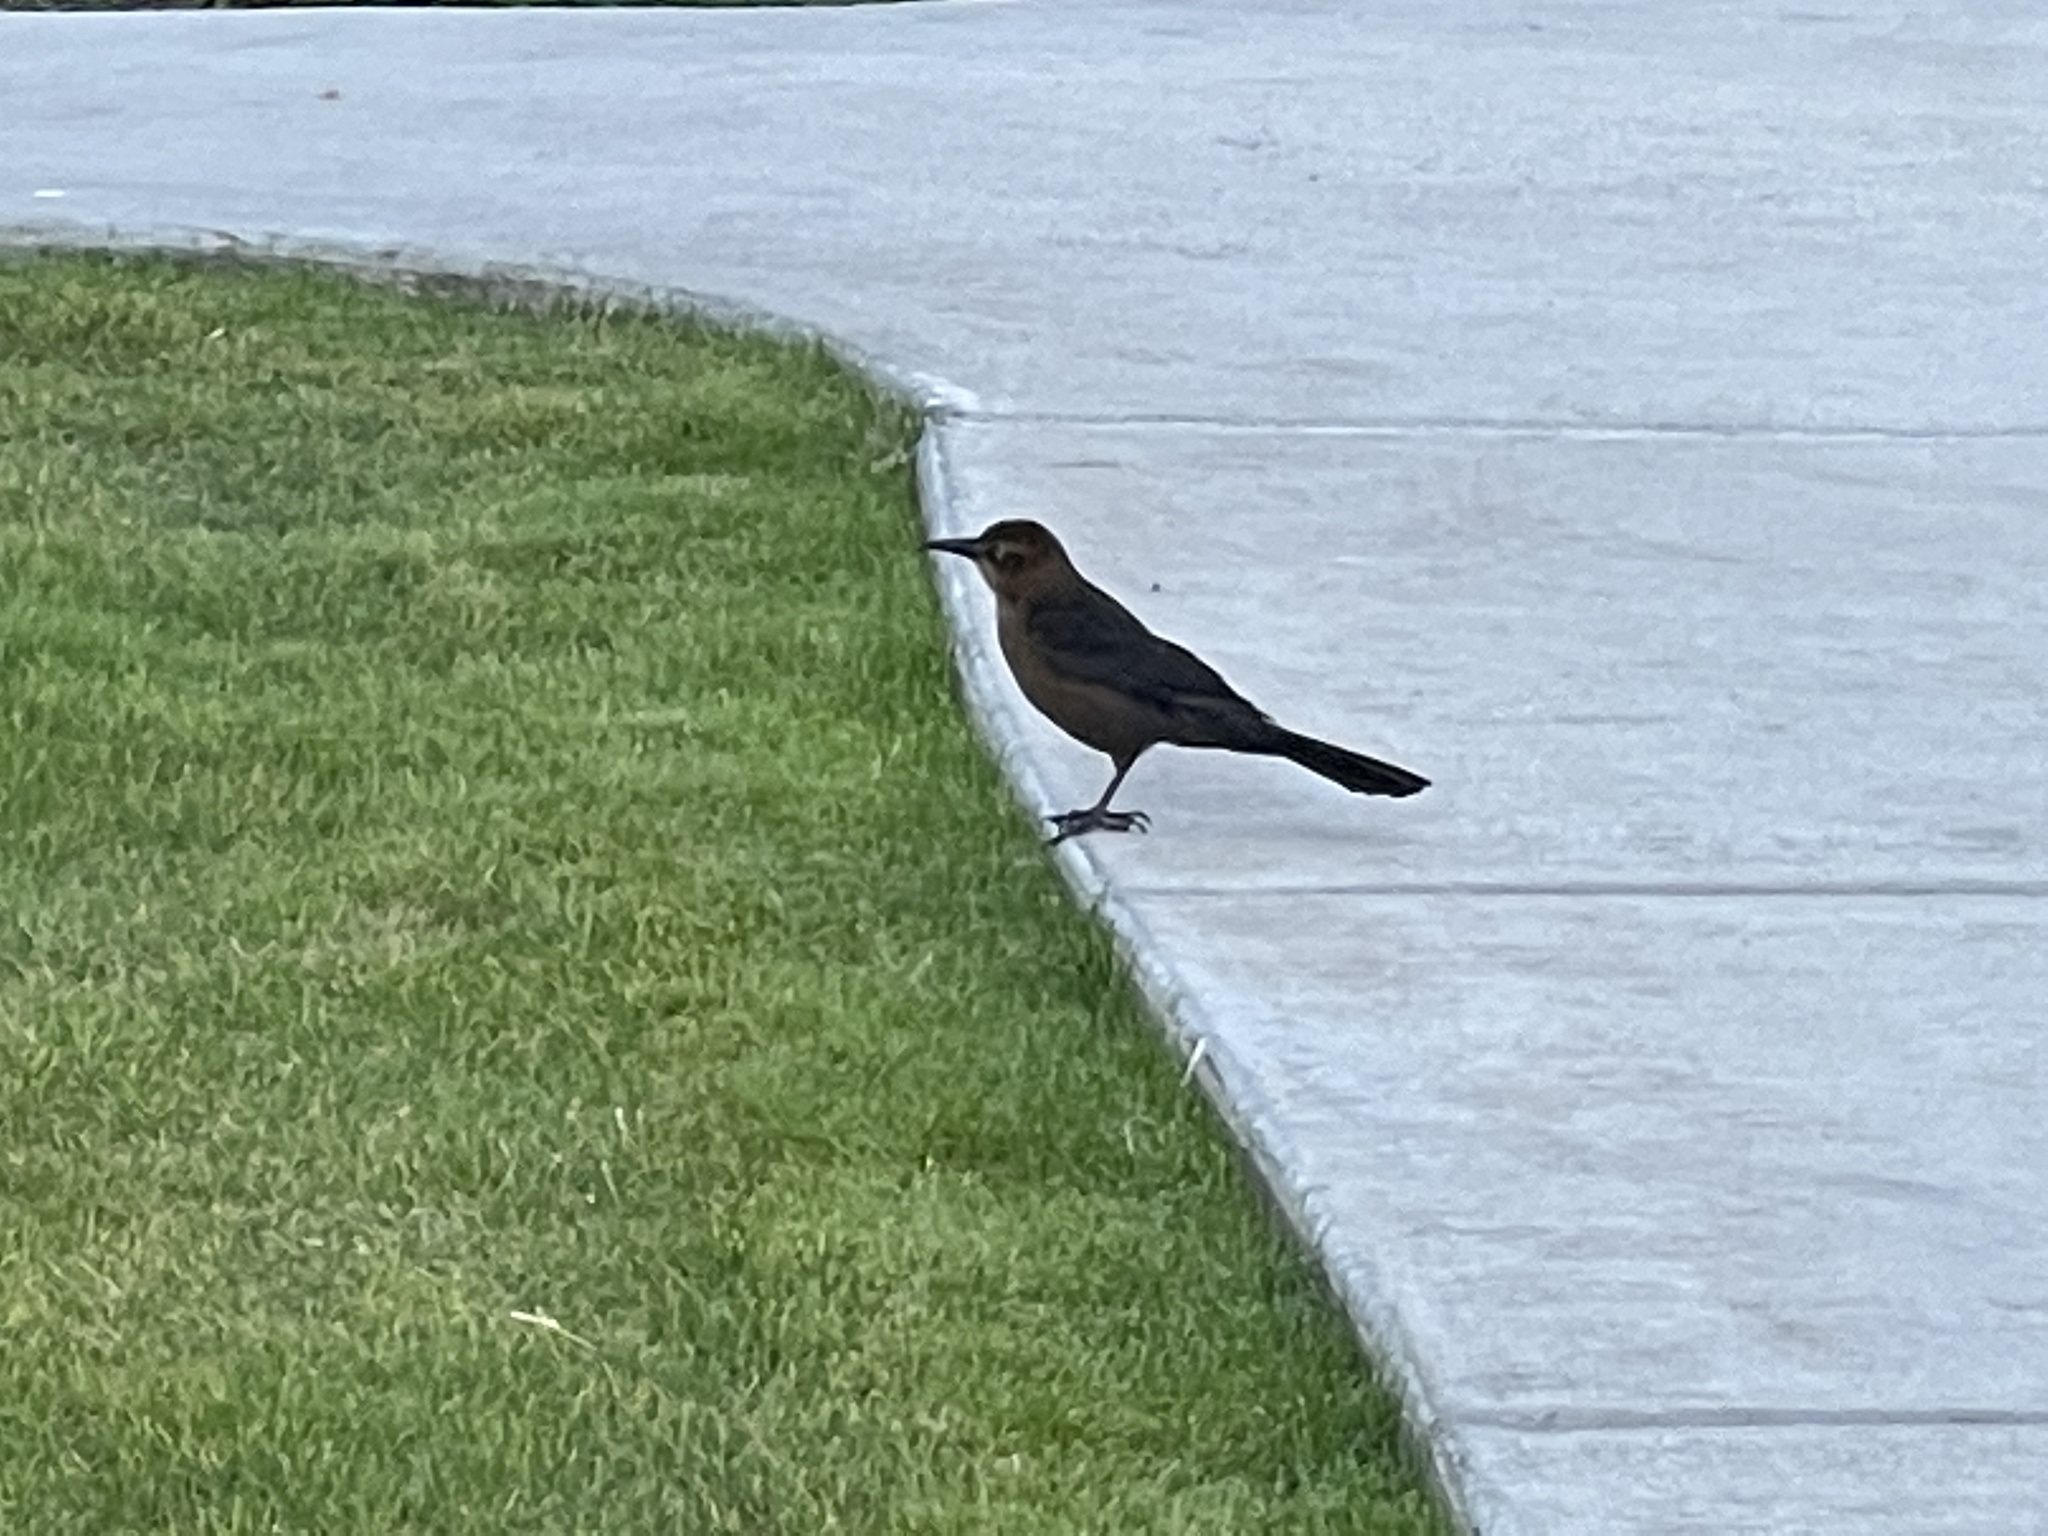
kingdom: Animalia
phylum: Chordata
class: Aves
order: Passeriformes
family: Icteridae
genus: Quiscalus
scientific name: Quiscalus mexicanus
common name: Great-tailed grackle
